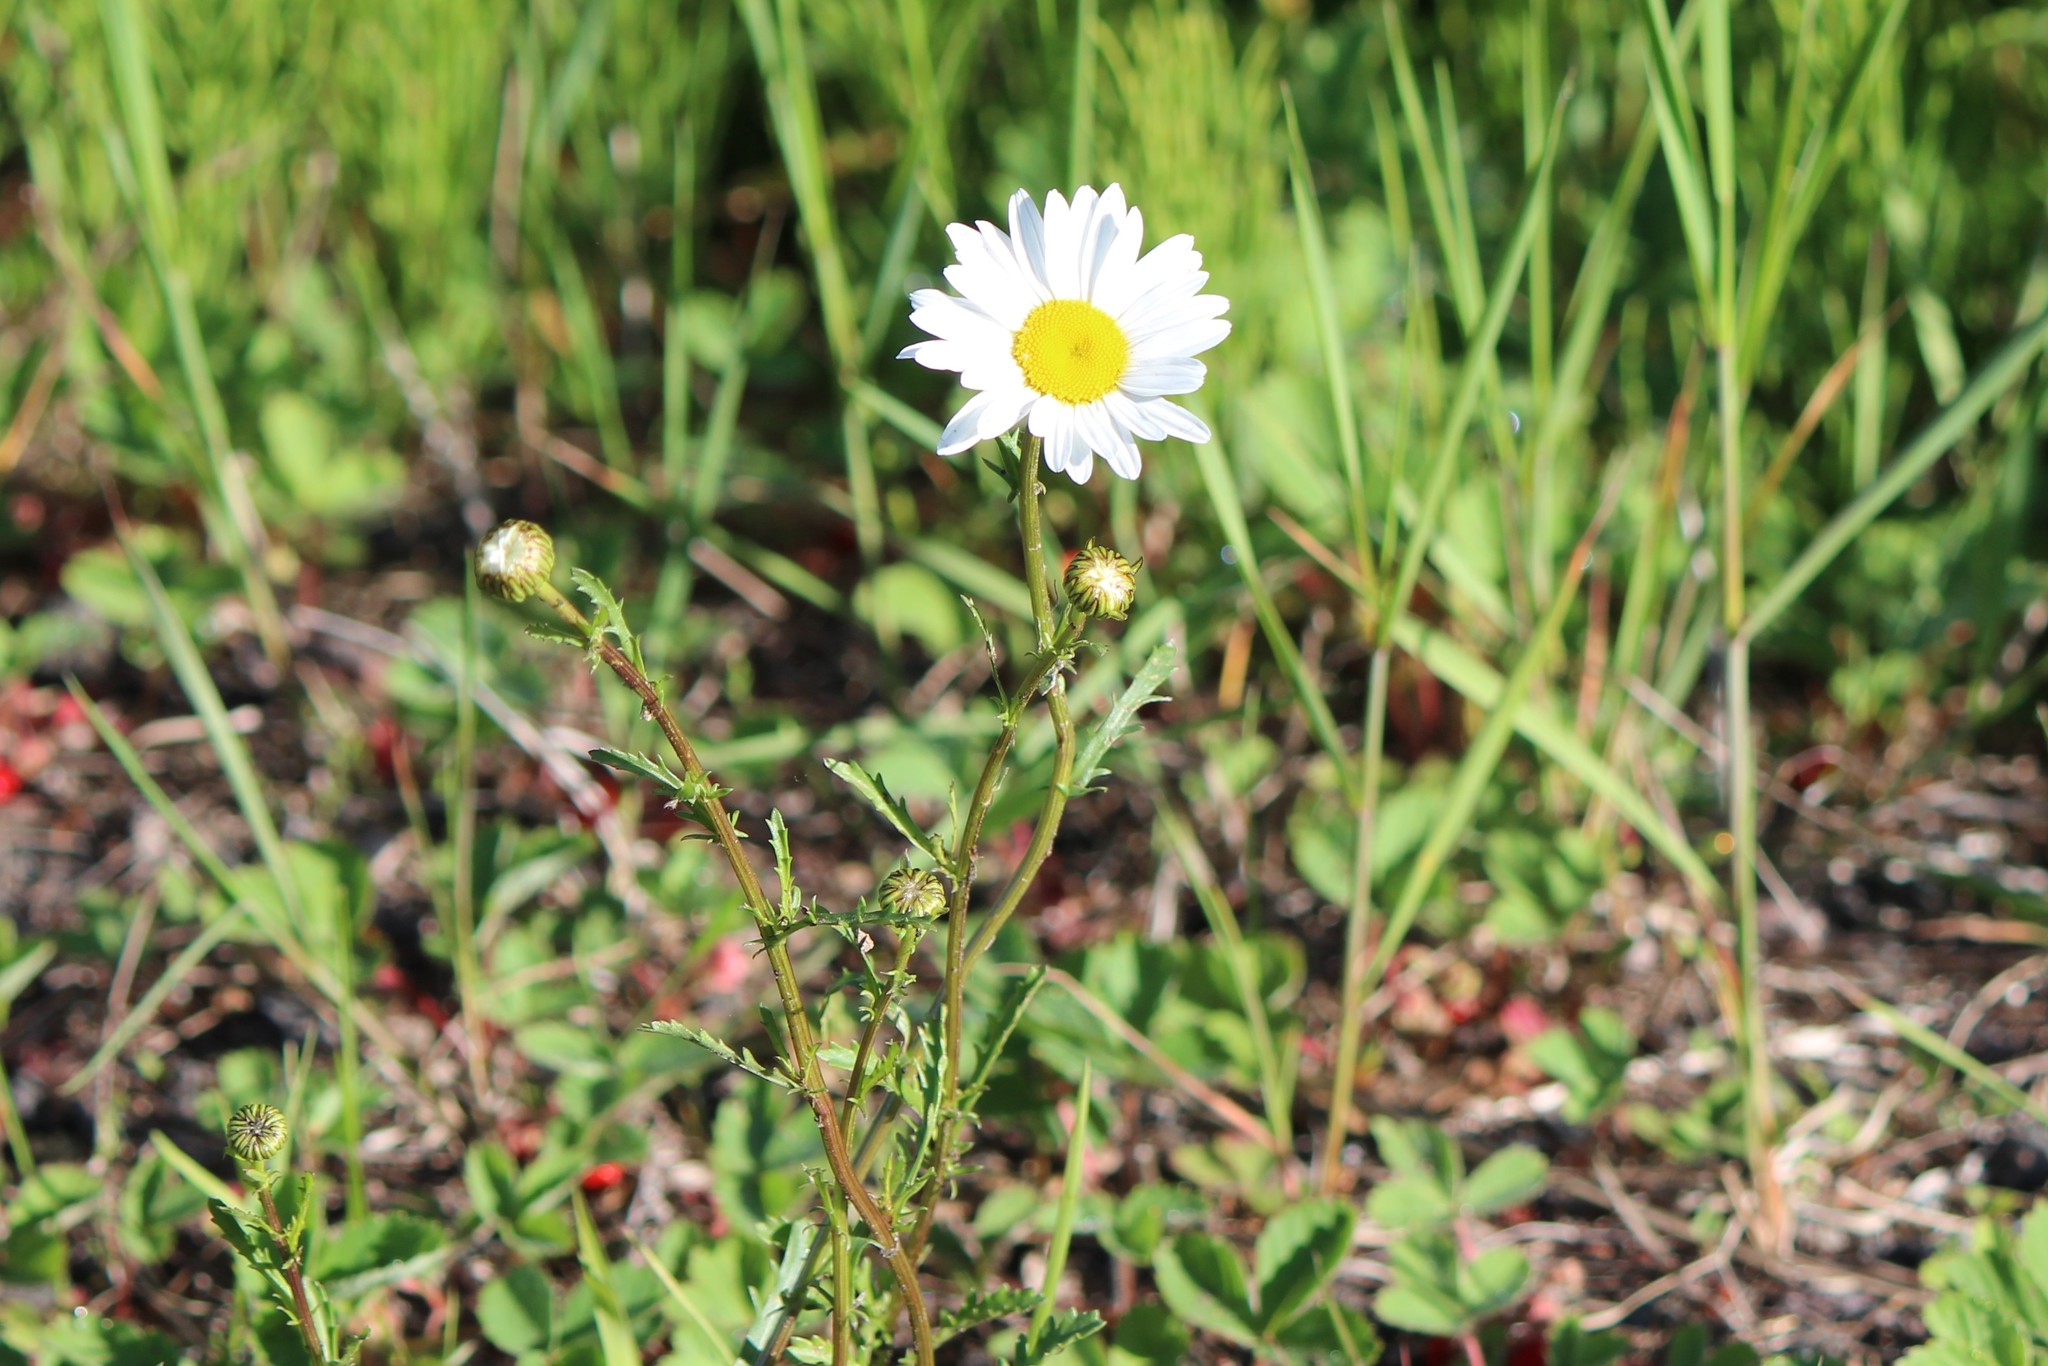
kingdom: Plantae
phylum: Tracheophyta
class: Magnoliopsida
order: Asterales
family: Asteraceae
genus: Leucanthemum
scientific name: Leucanthemum vulgare
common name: Oxeye daisy
